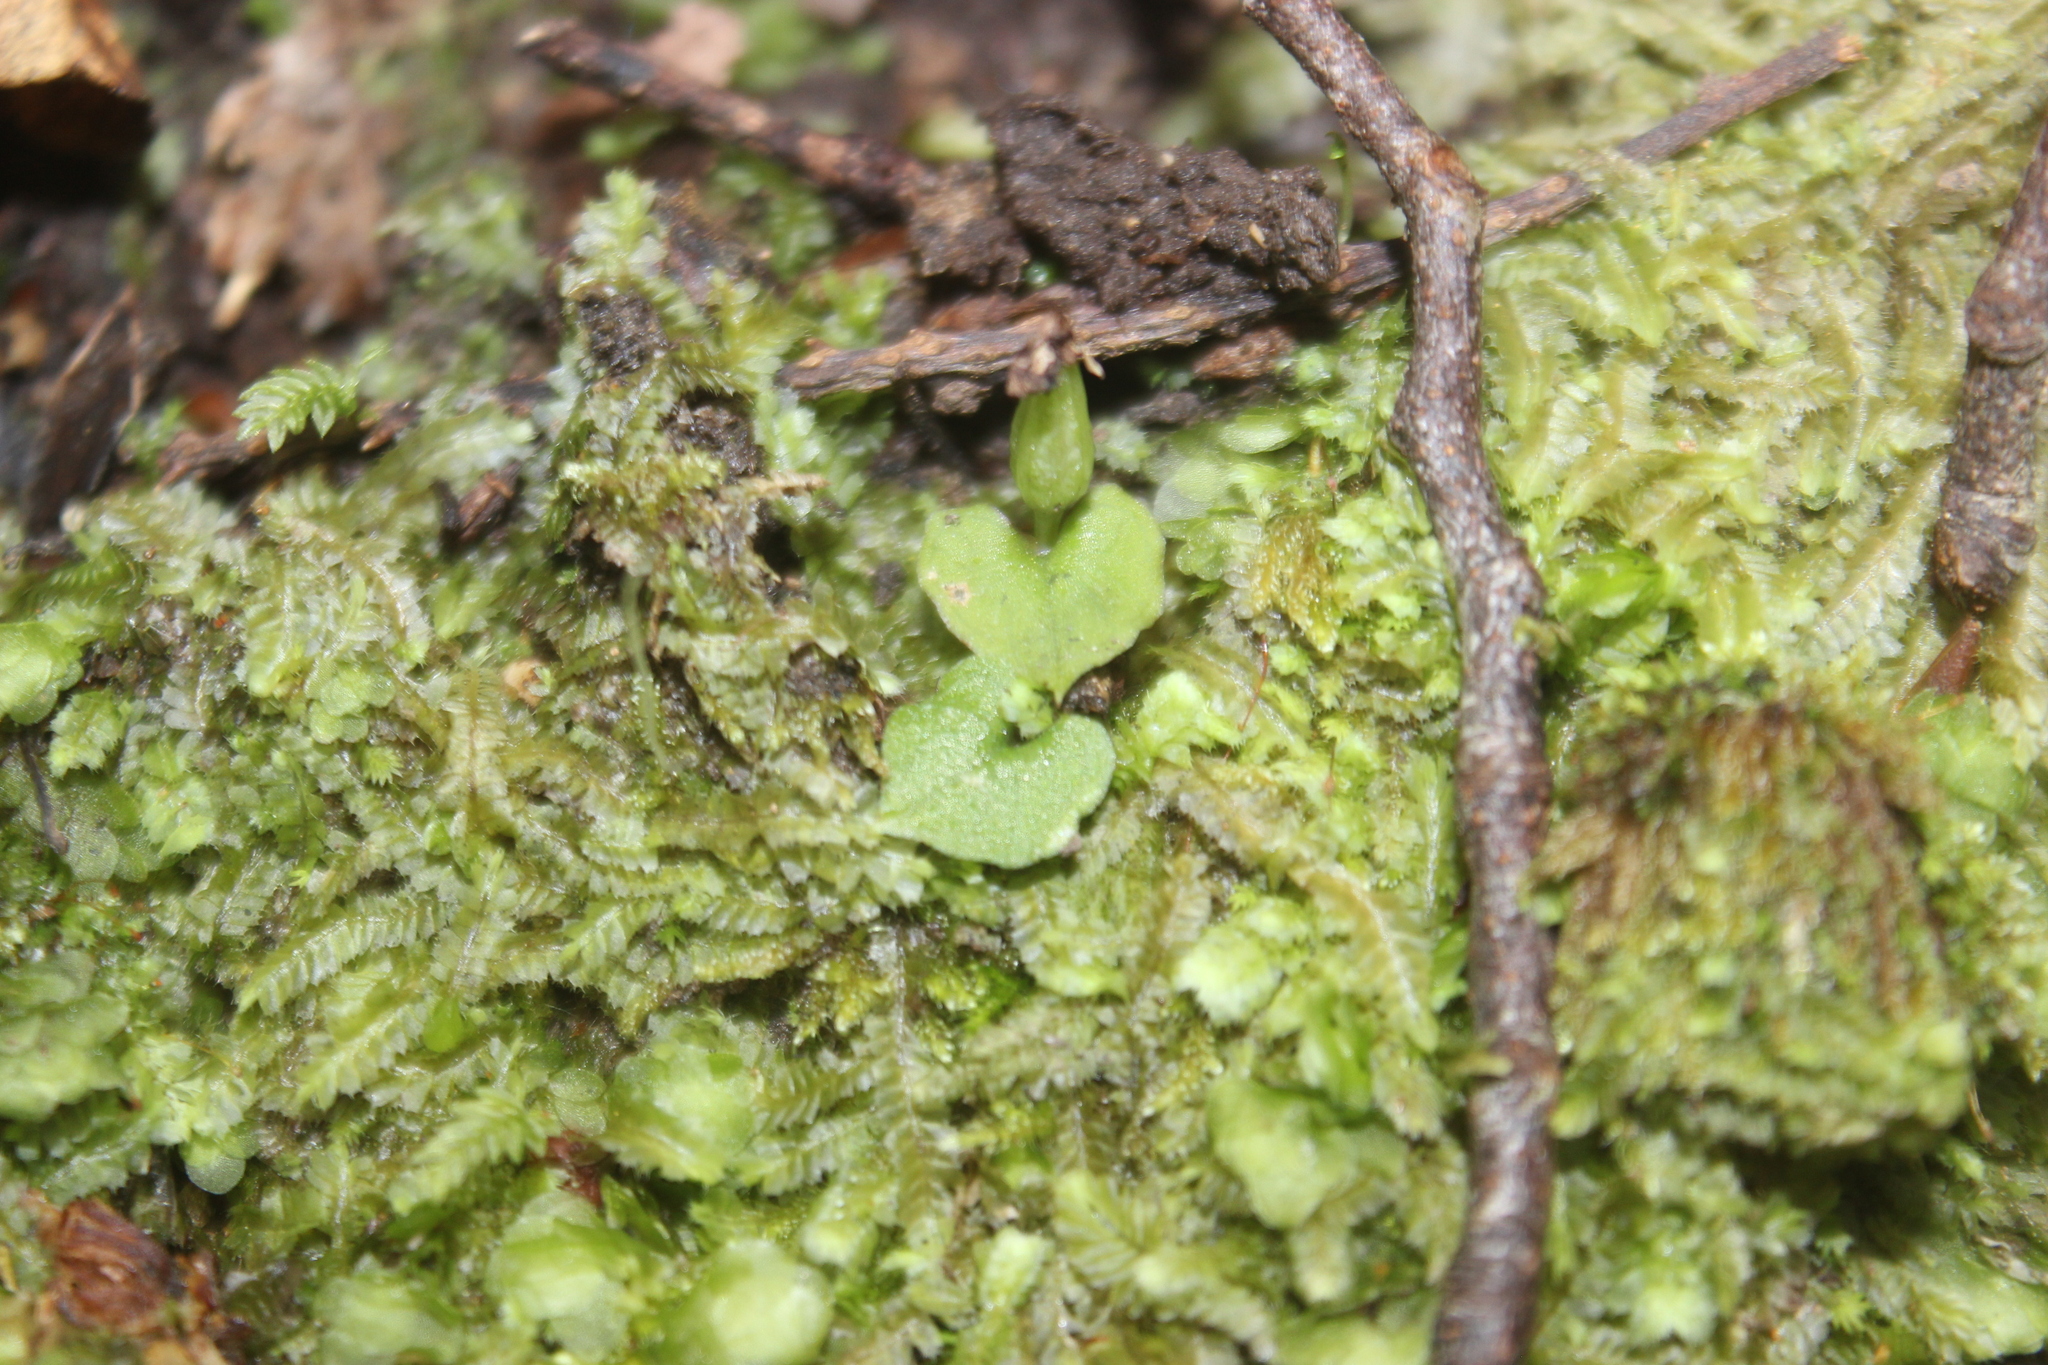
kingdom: Plantae
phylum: Tracheophyta
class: Liliopsida
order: Asparagales
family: Orchidaceae
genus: Corybas
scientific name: Corybas cheesemanii
